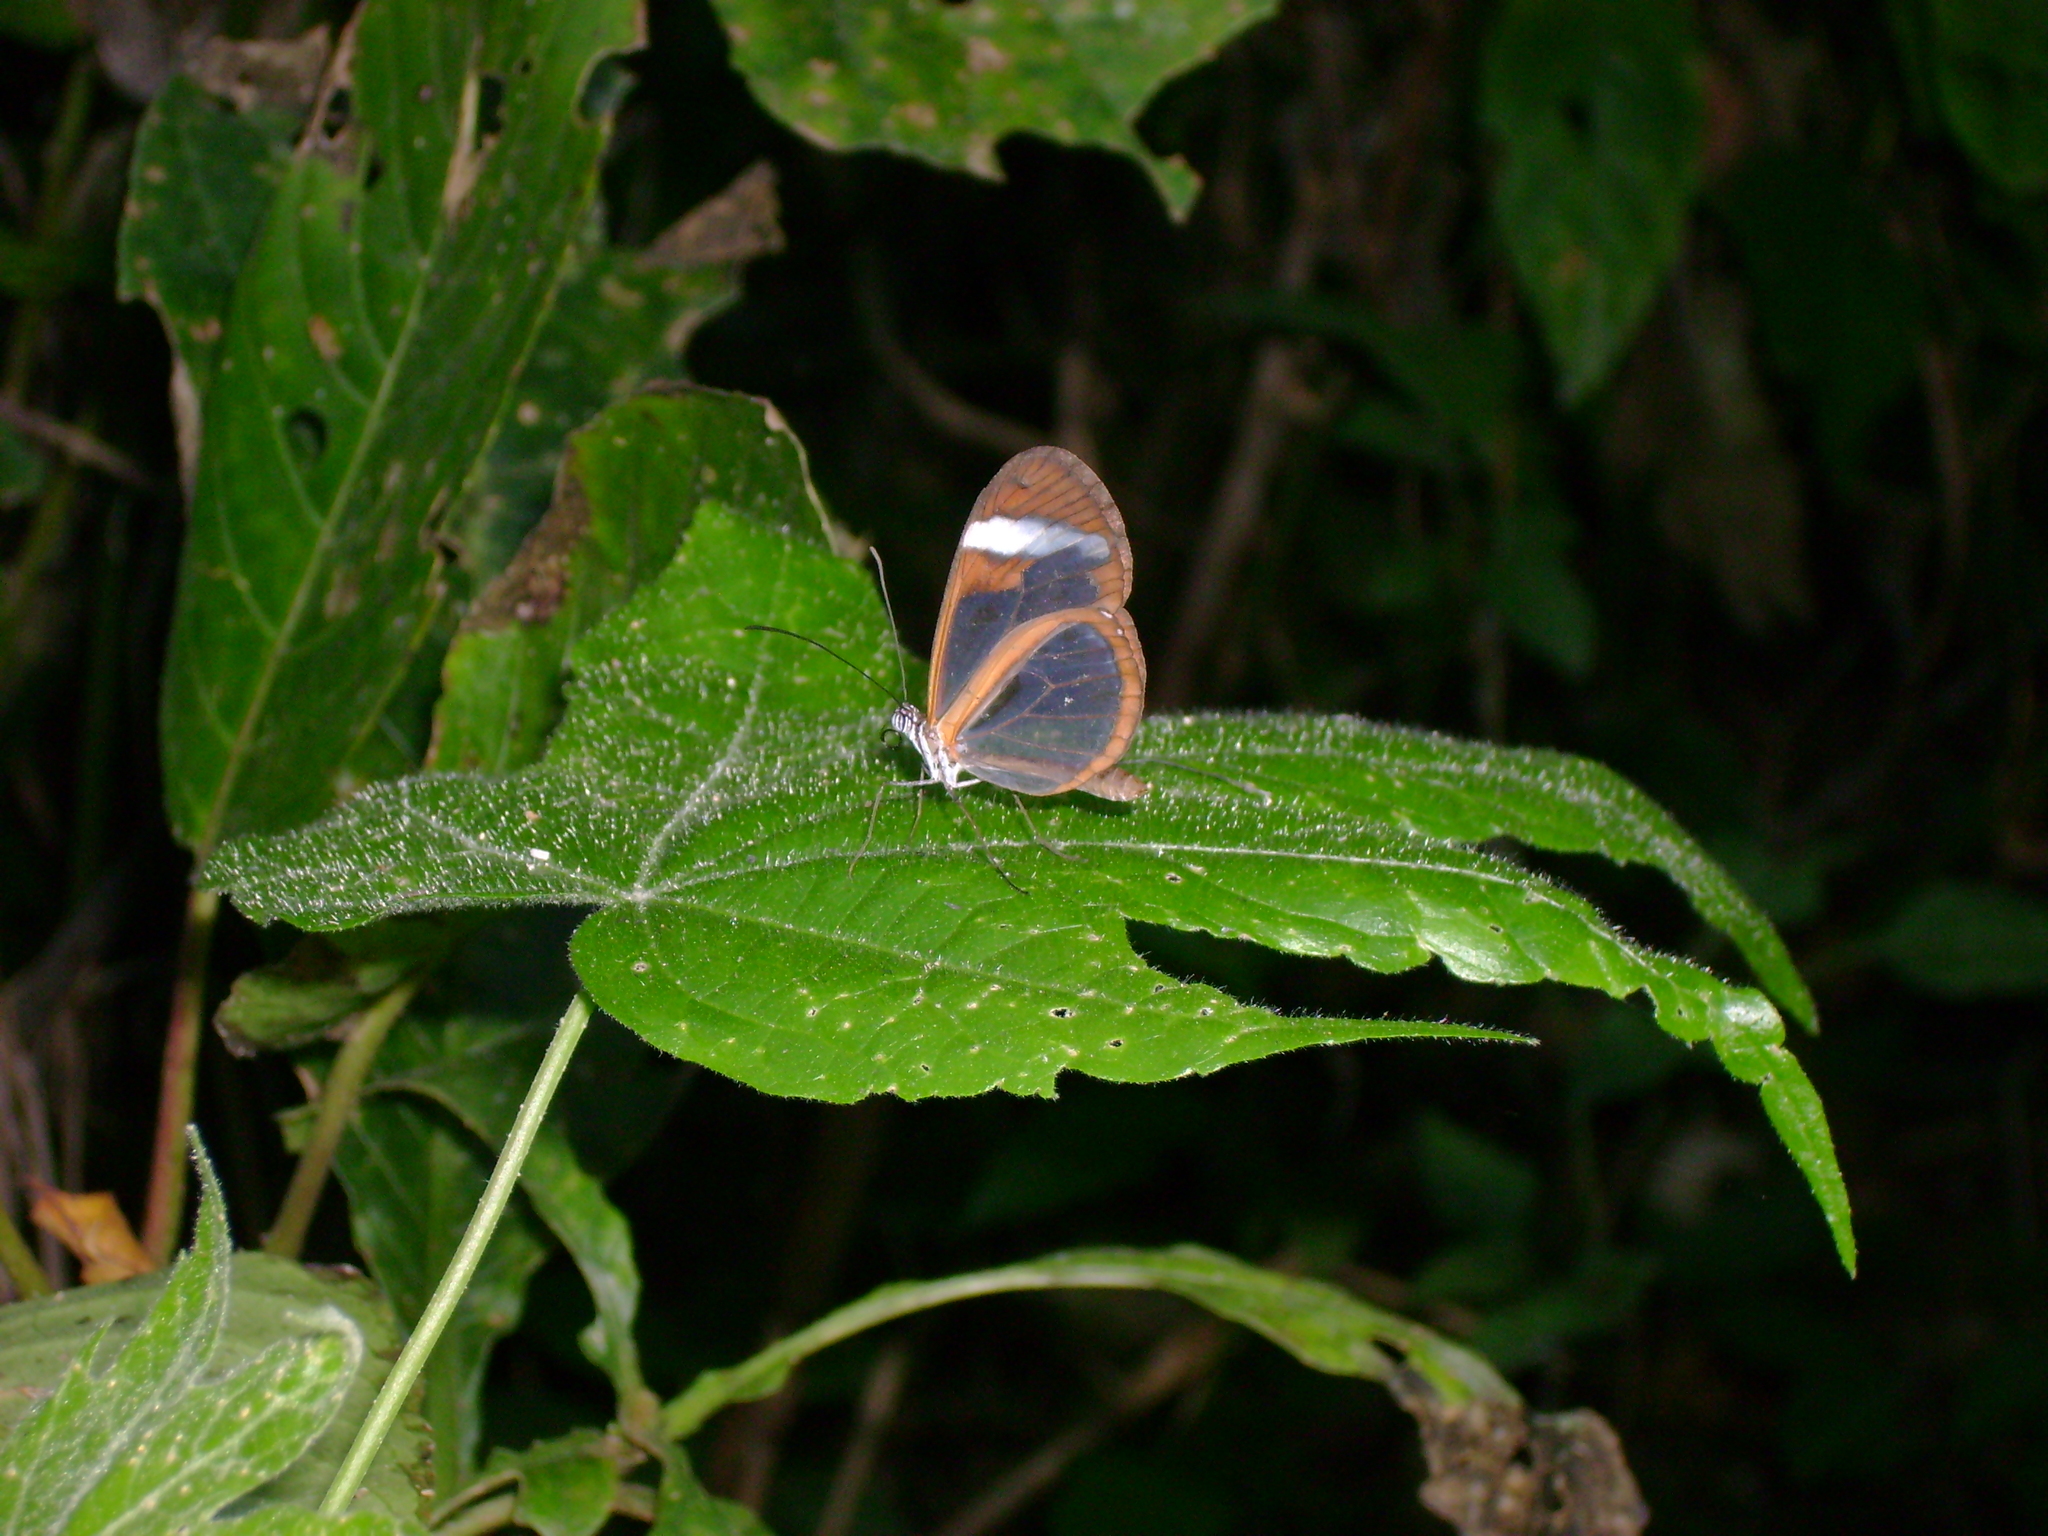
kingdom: Animalia
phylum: Arthropoda
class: Insecta
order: Lepidoptera
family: Nymphalidae
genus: Oleria
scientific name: Oleria paula
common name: Paula's clearwing
